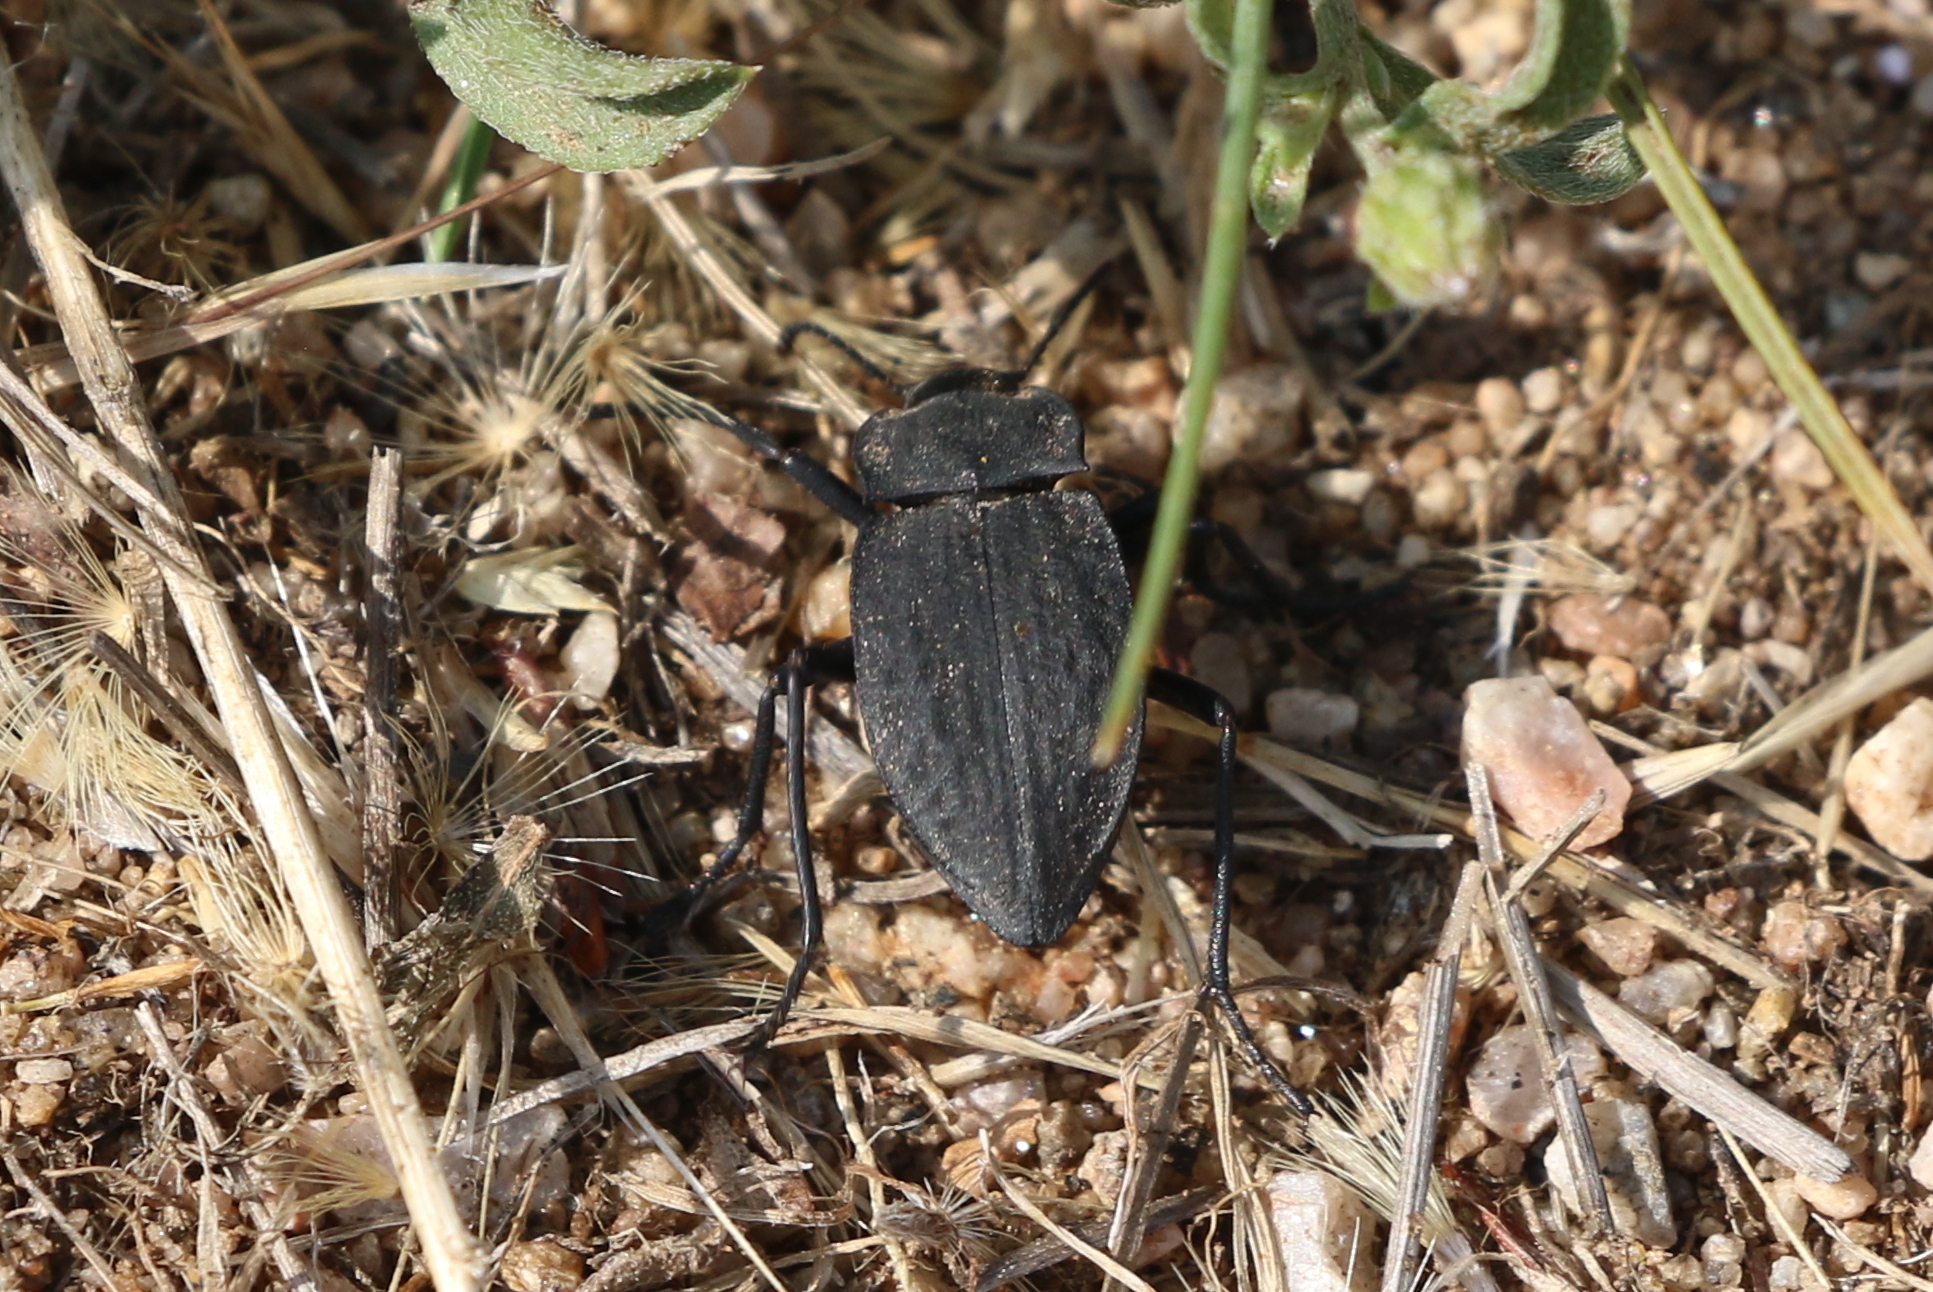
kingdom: Animalia
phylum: Arthropoda
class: Insecta
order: Coleoptera
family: Tenebrionidae
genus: Stenomorpha
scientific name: Stenomorpha opaca
